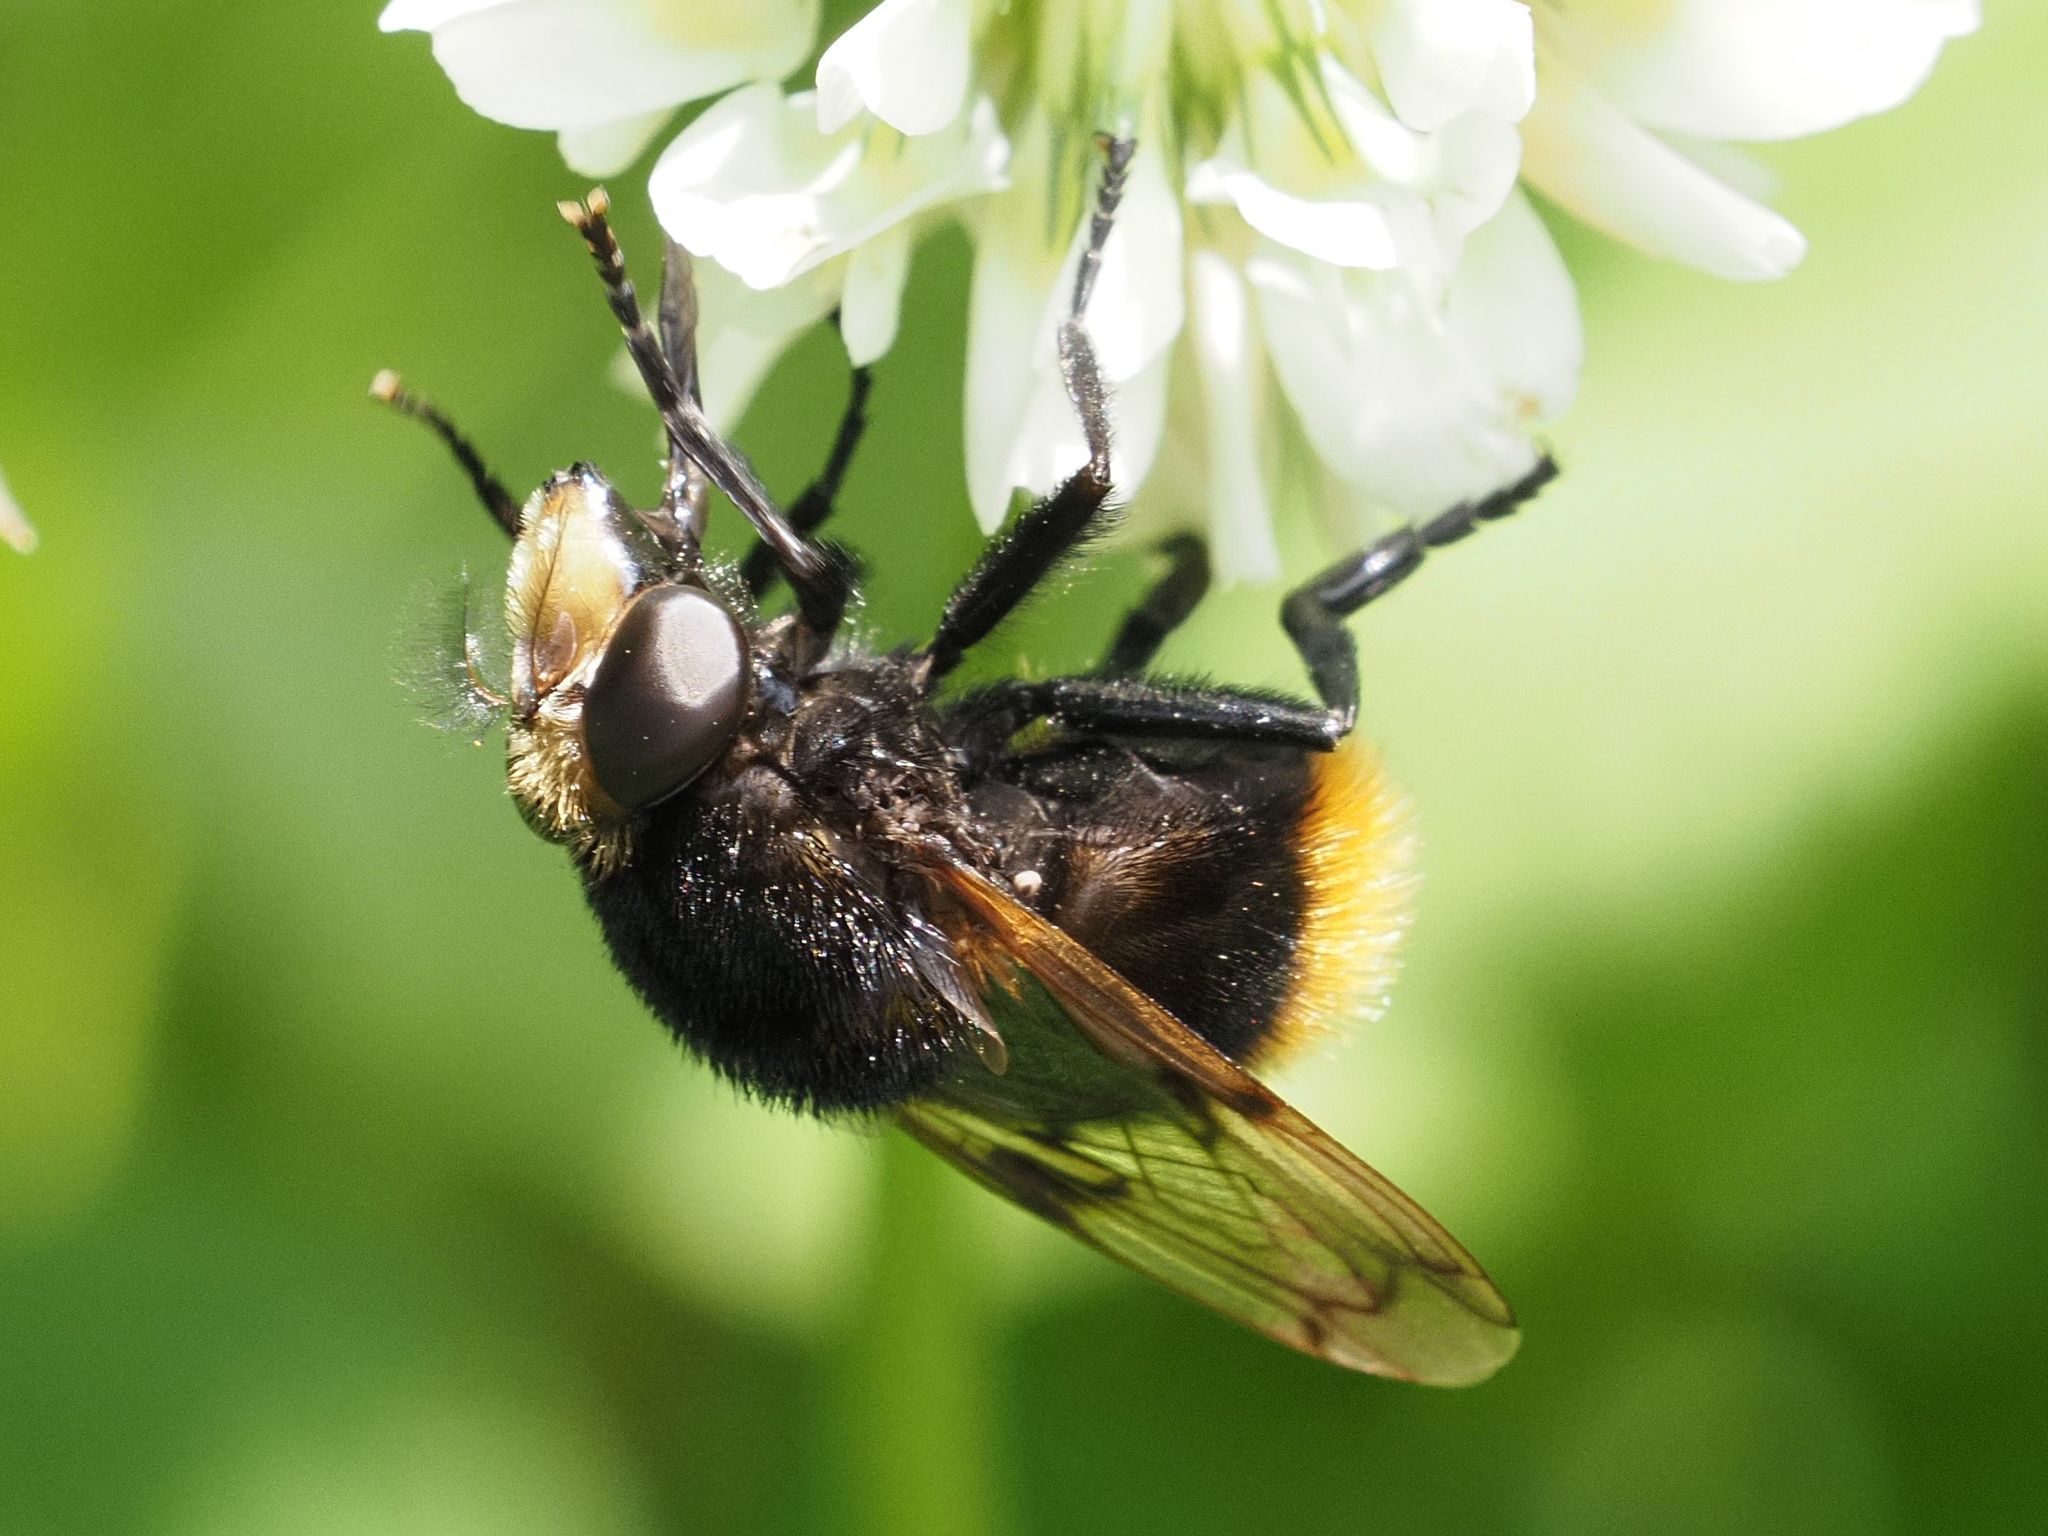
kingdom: Animalia
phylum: Arthropoda
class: Insecta
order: Diptera
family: Syrphidae
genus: Volucella
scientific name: Volucella bombylans
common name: Bumble bee hover fly
